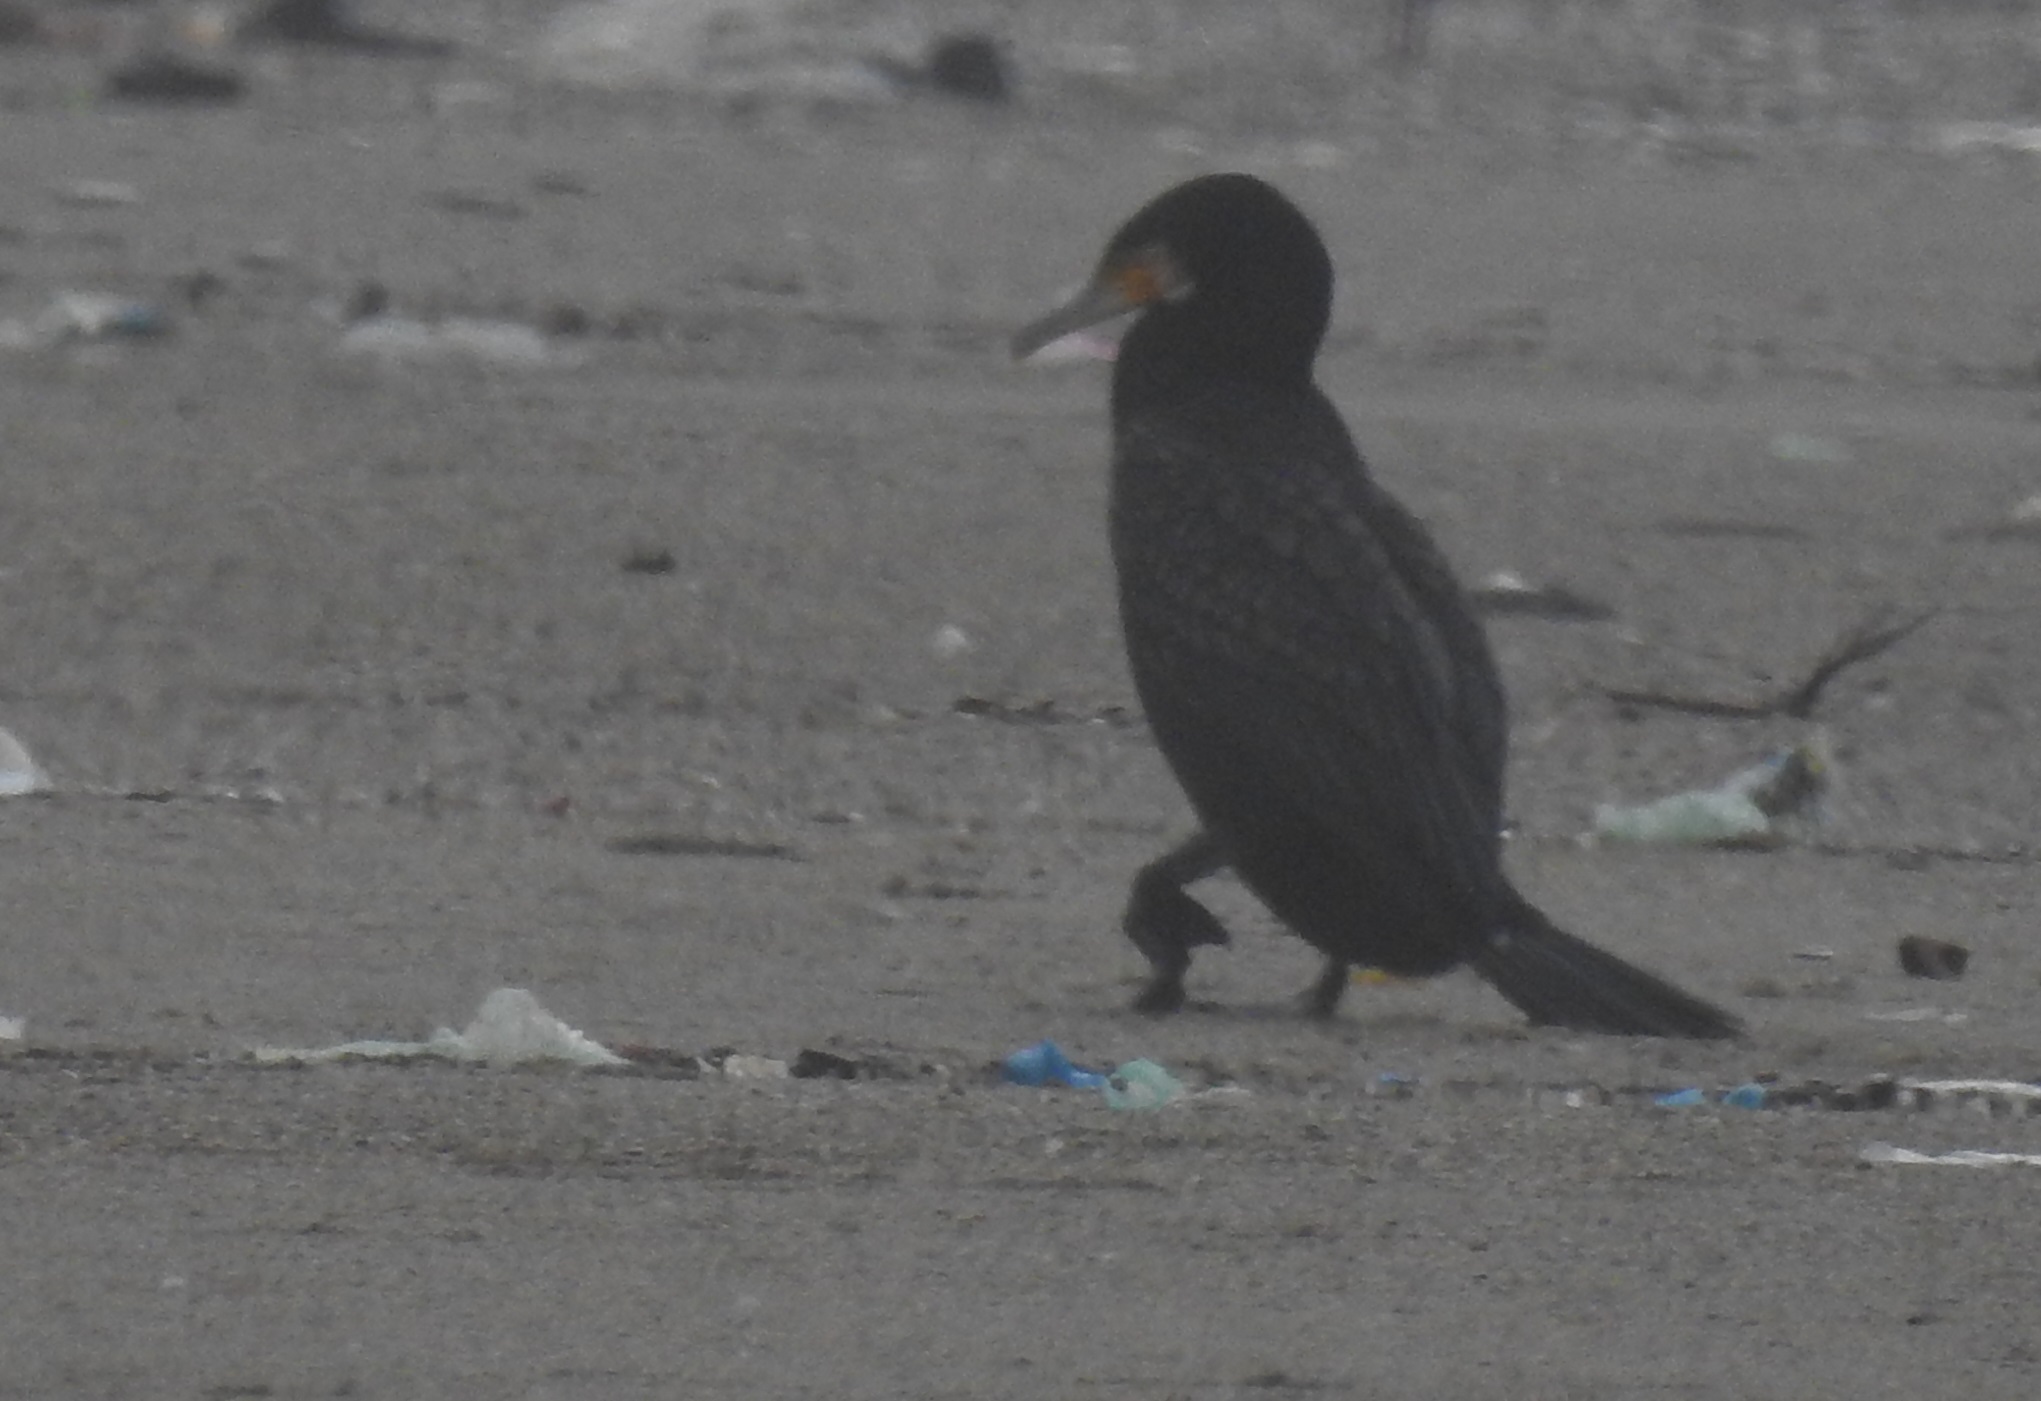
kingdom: Animalia
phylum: Chordata
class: Aves
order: Suliformes
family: Phalacrocoracidae
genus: Phalacrocorax
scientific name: Phalacrocorax carbo
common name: Great cormorant
